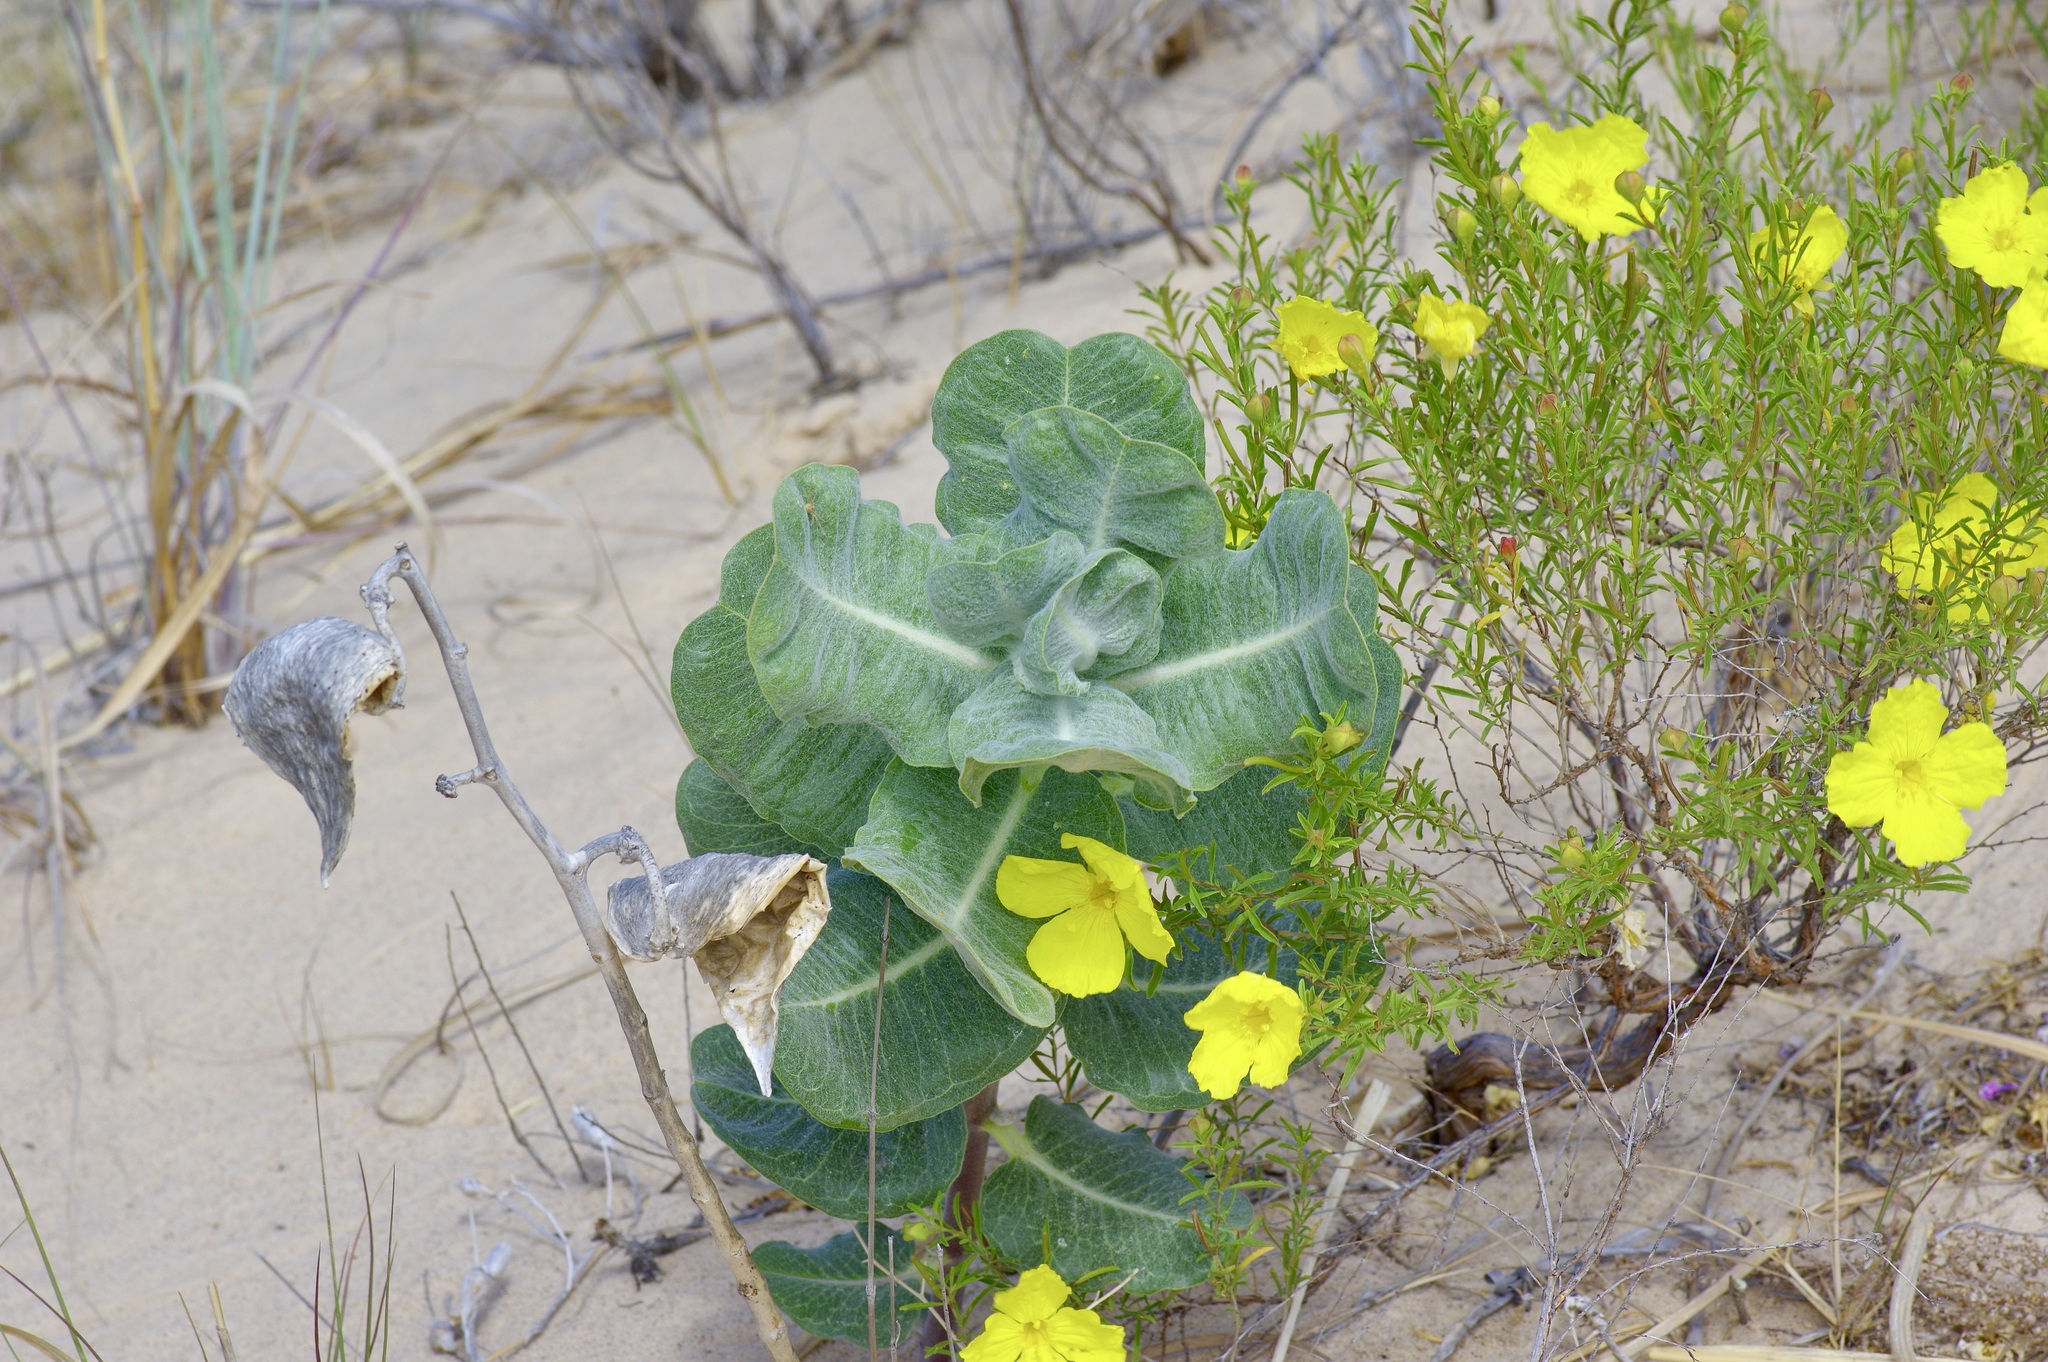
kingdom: Plantae
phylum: Tracheophyta
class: Magnoliopsida
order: Gentianales
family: Apocynaceae
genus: Asclepias
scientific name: Asclepias arenaria
